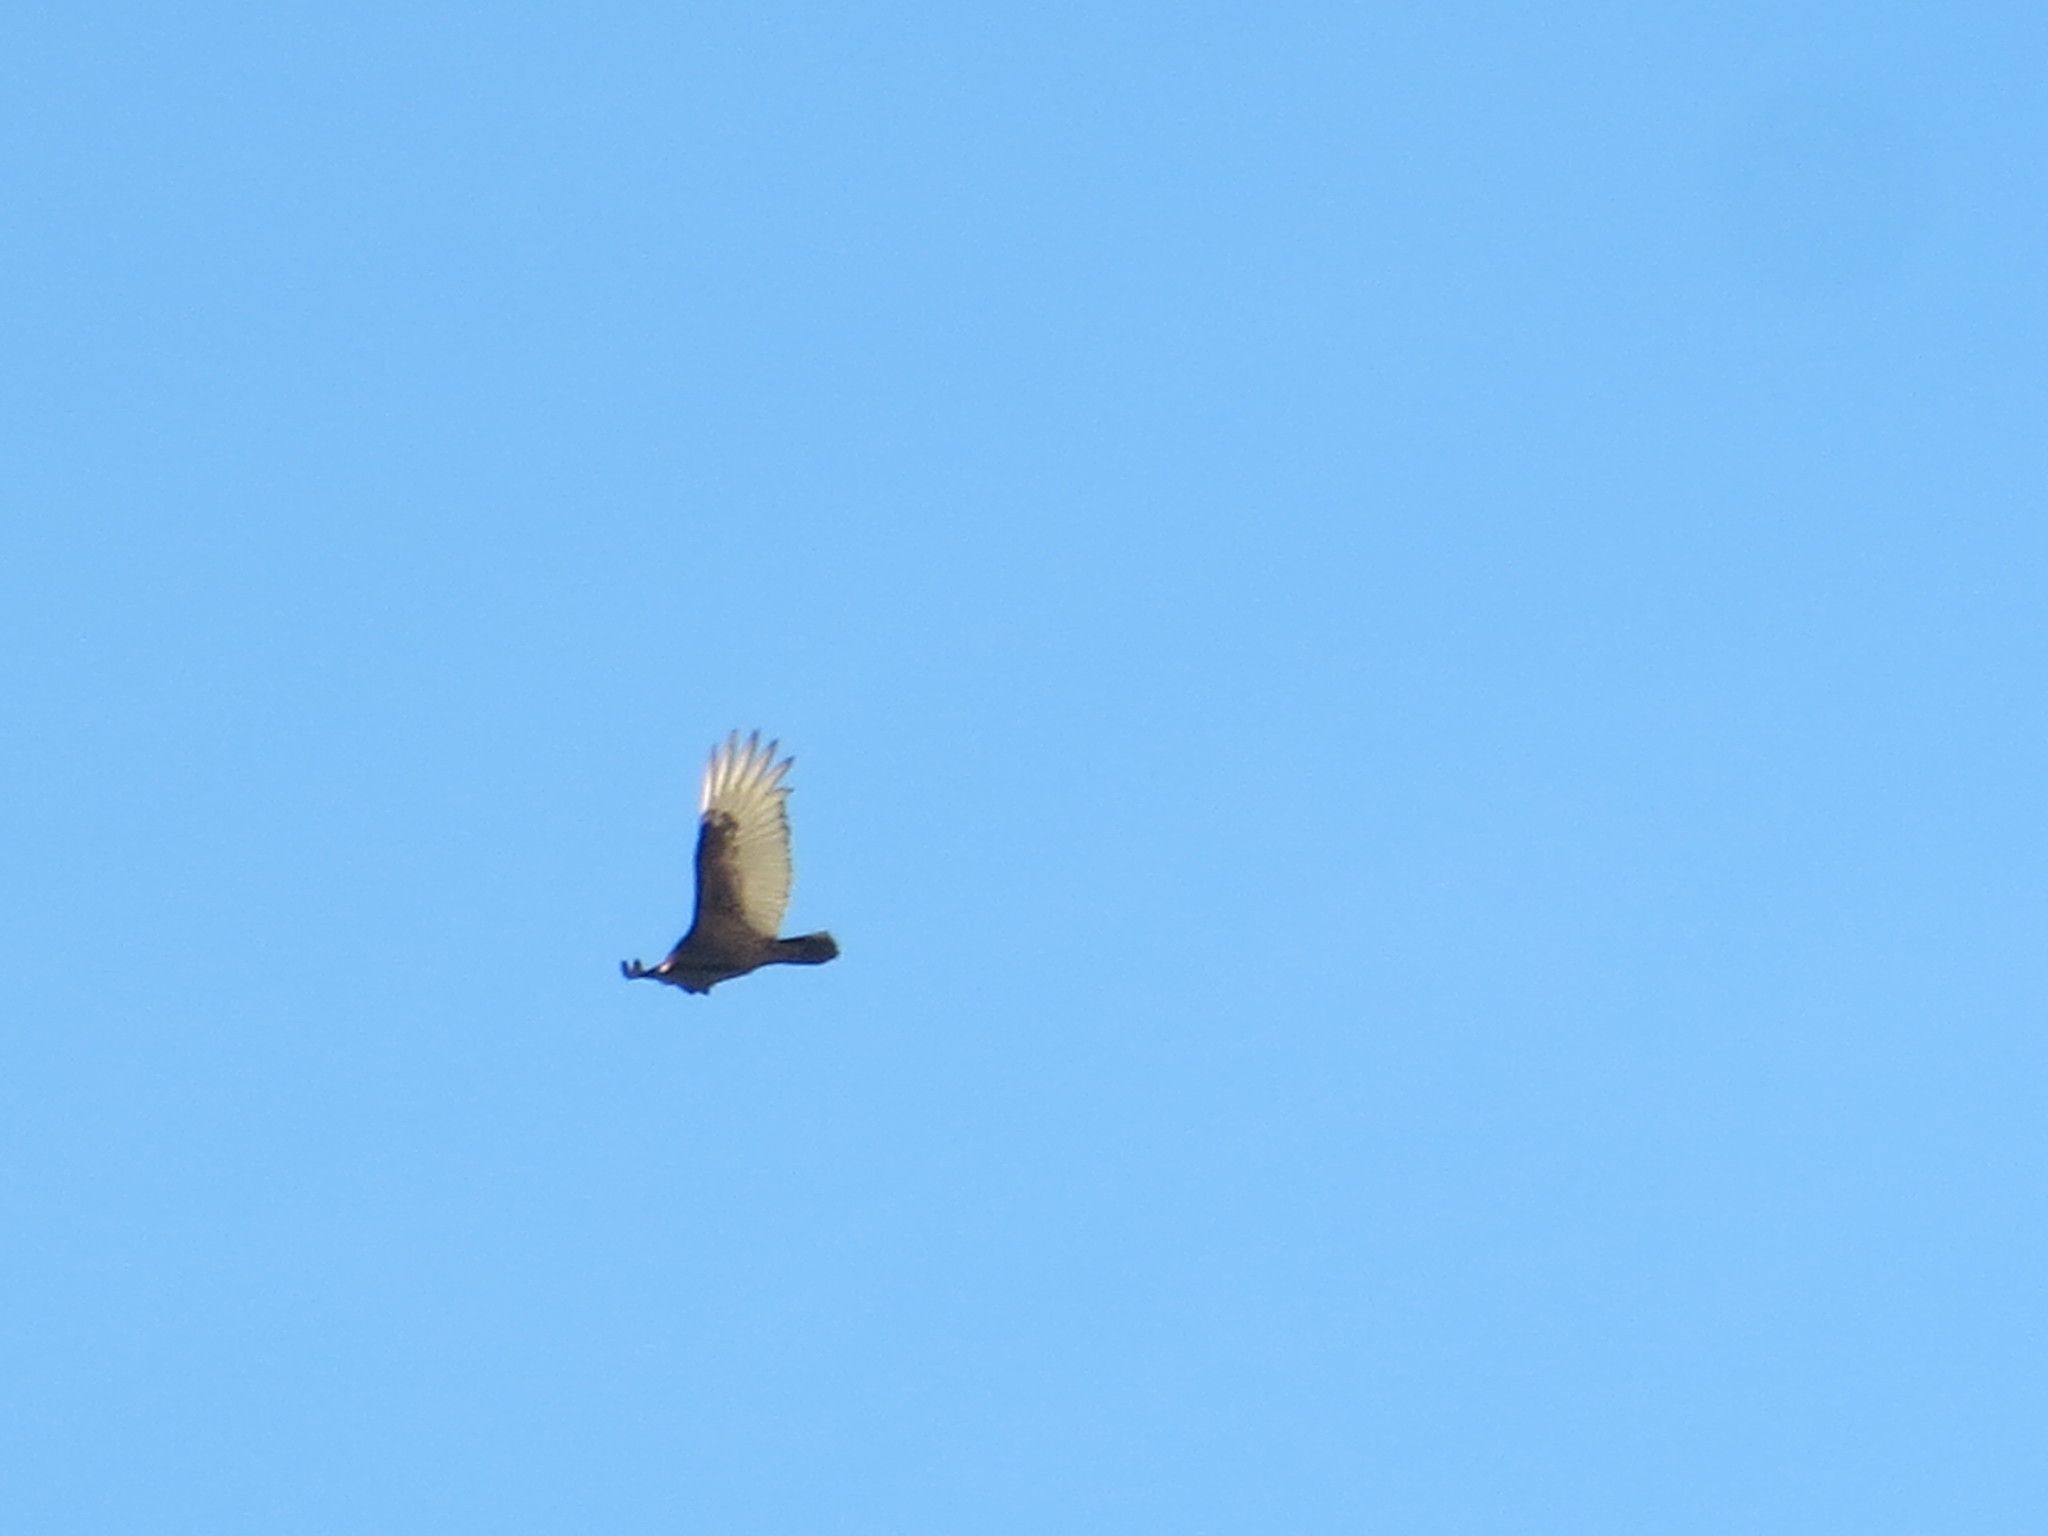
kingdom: Animalia
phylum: Chordata
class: Aves
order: Accipitriformes
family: Cathartidae
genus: Cathartes
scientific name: Cathartes aura
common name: Turkey vulture
